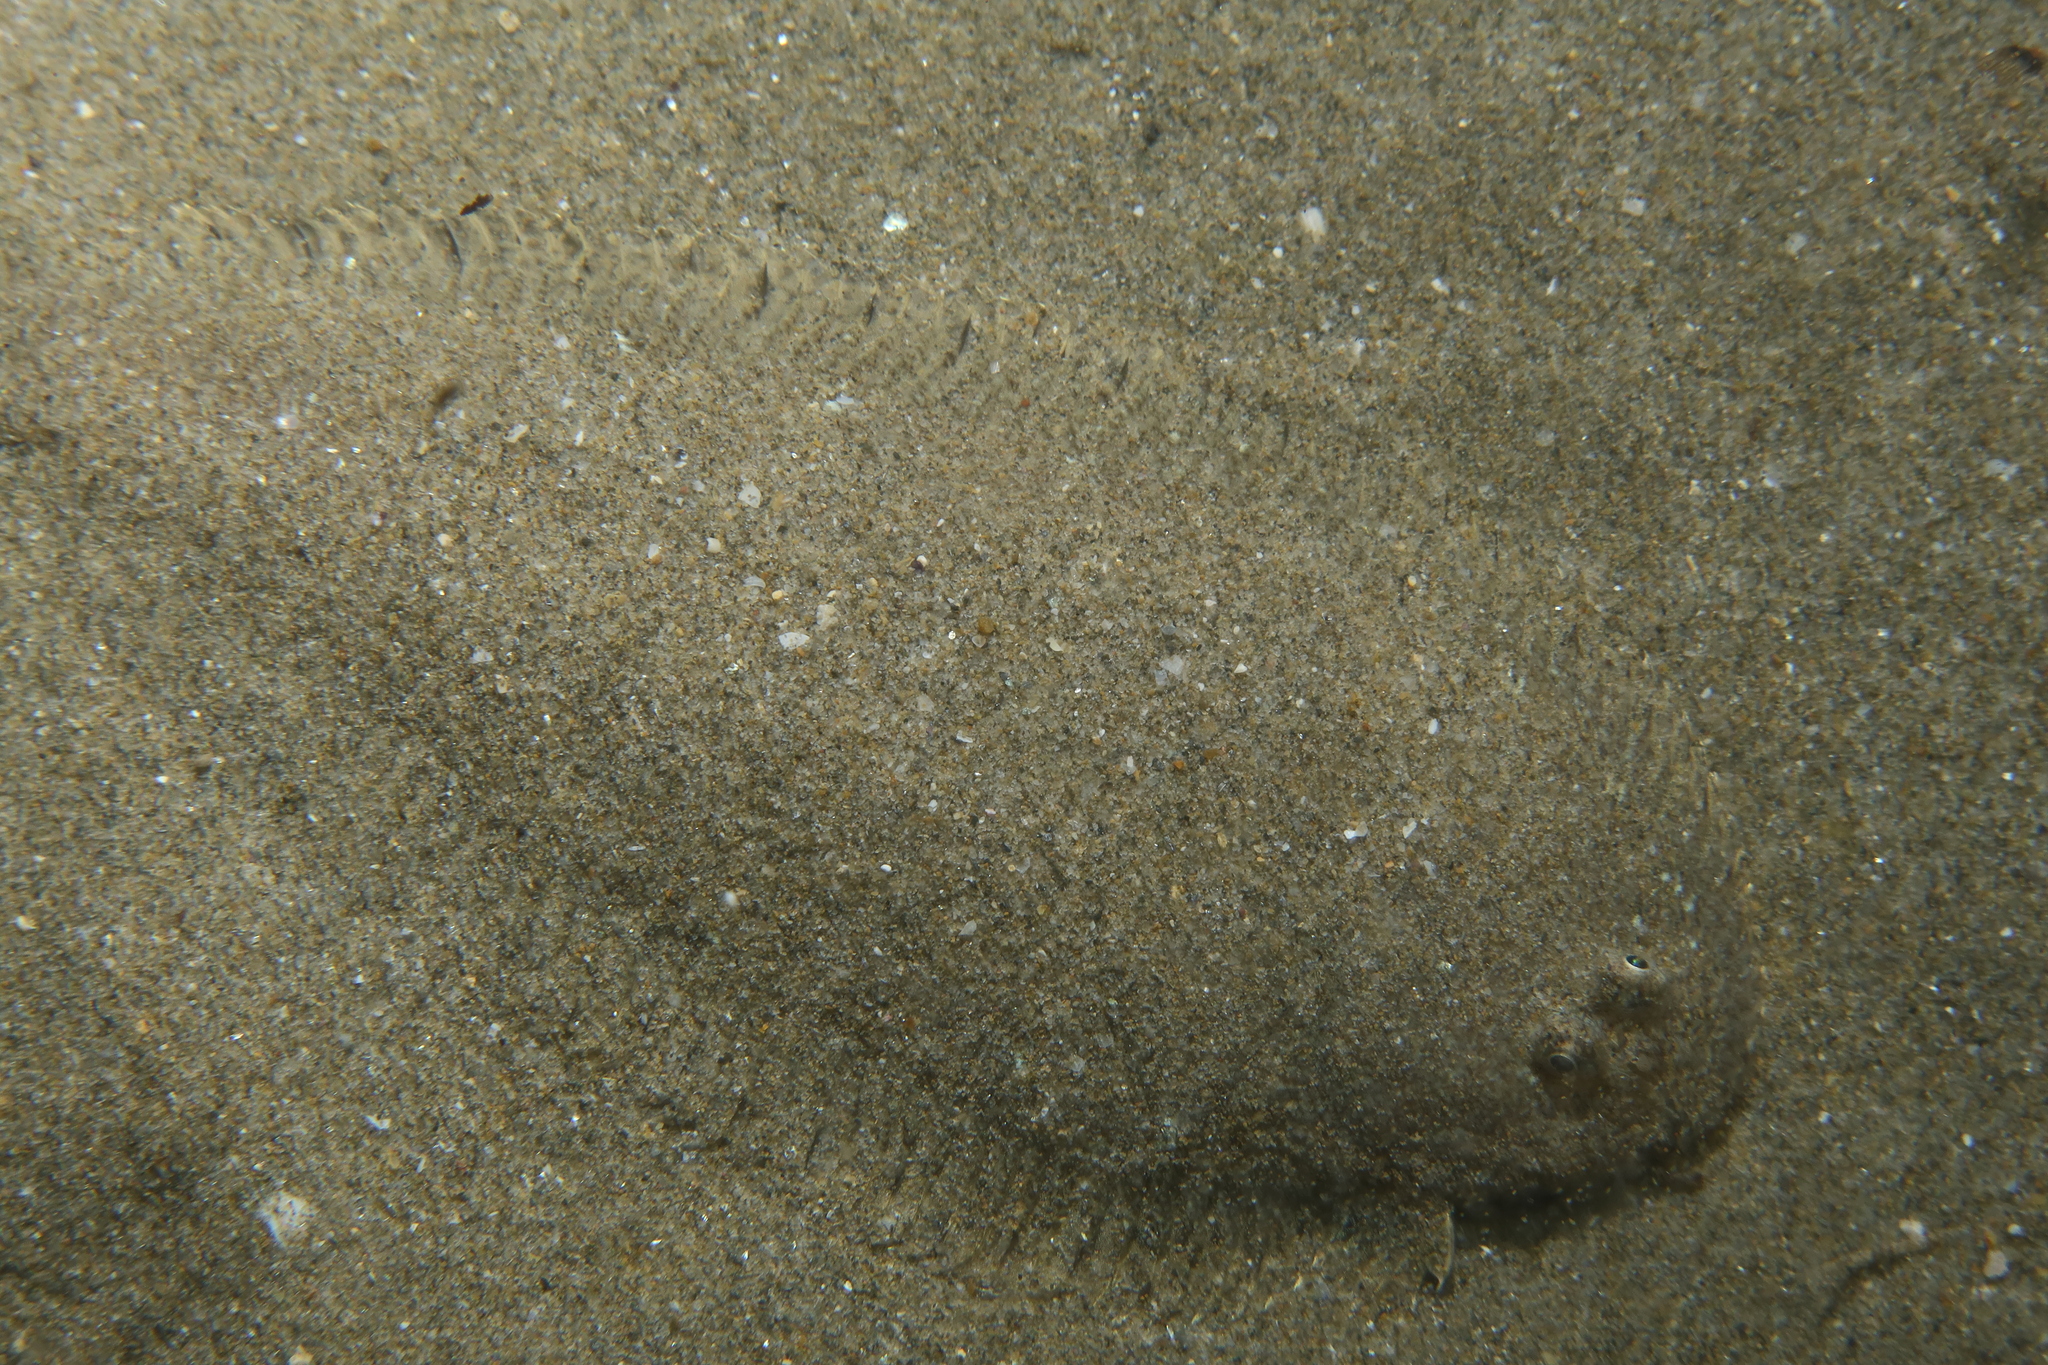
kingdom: Animalia
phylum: Chordata
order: Pleuronectiformes
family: Soleidae
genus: Buglossidium
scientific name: Buglossidium luteum
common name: Solenette
